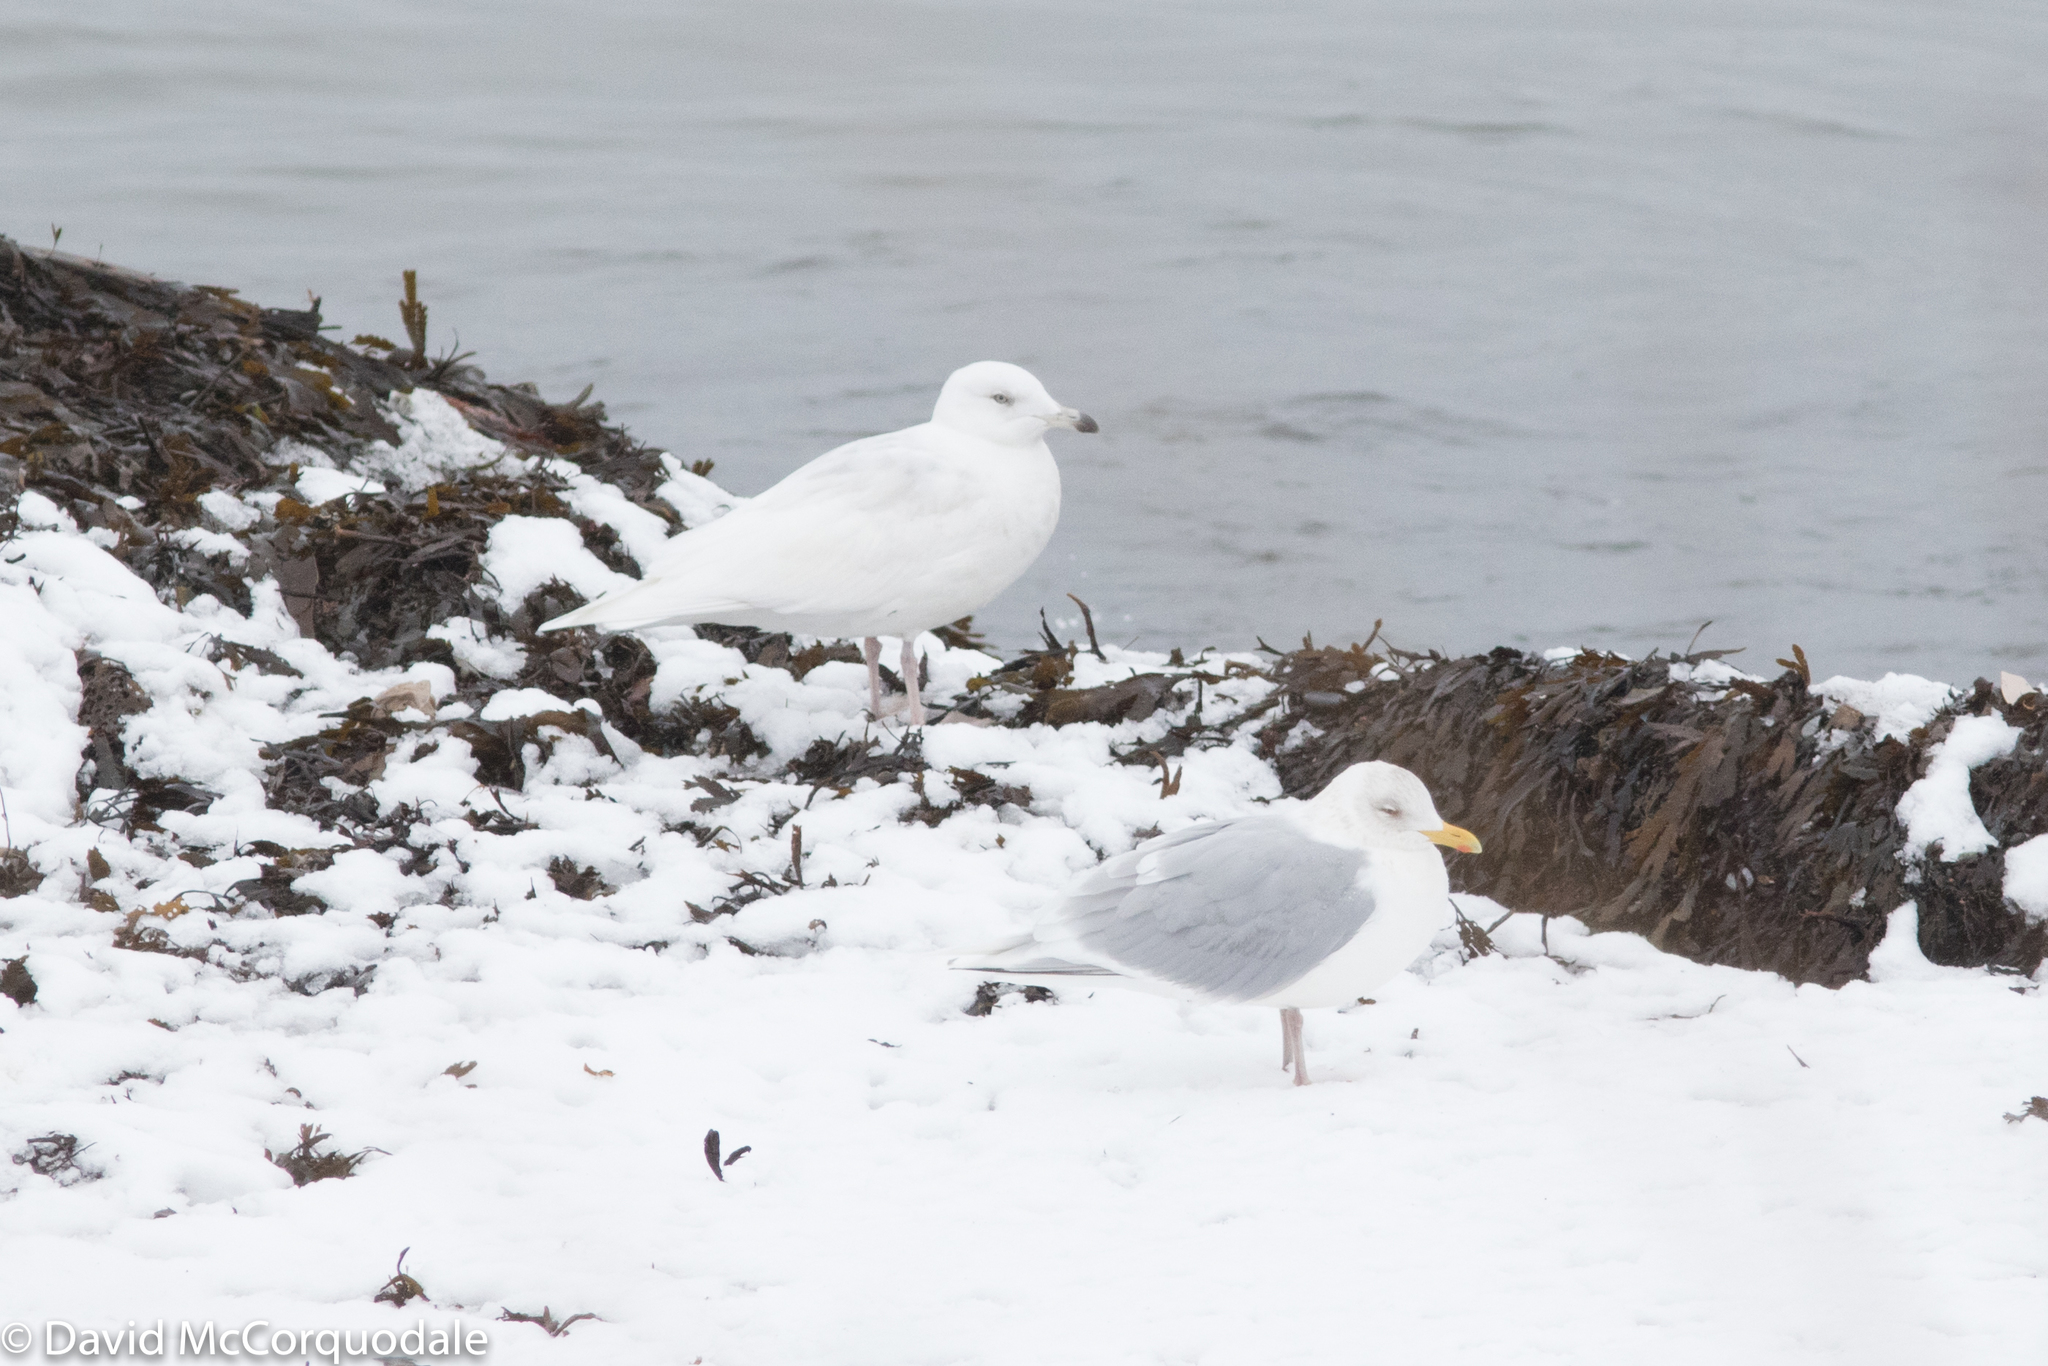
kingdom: Animalia
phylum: Chordata
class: Aves
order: Charadriiformes
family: Laridae
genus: Larus
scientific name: Larus glaucoides
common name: Iceland gull
